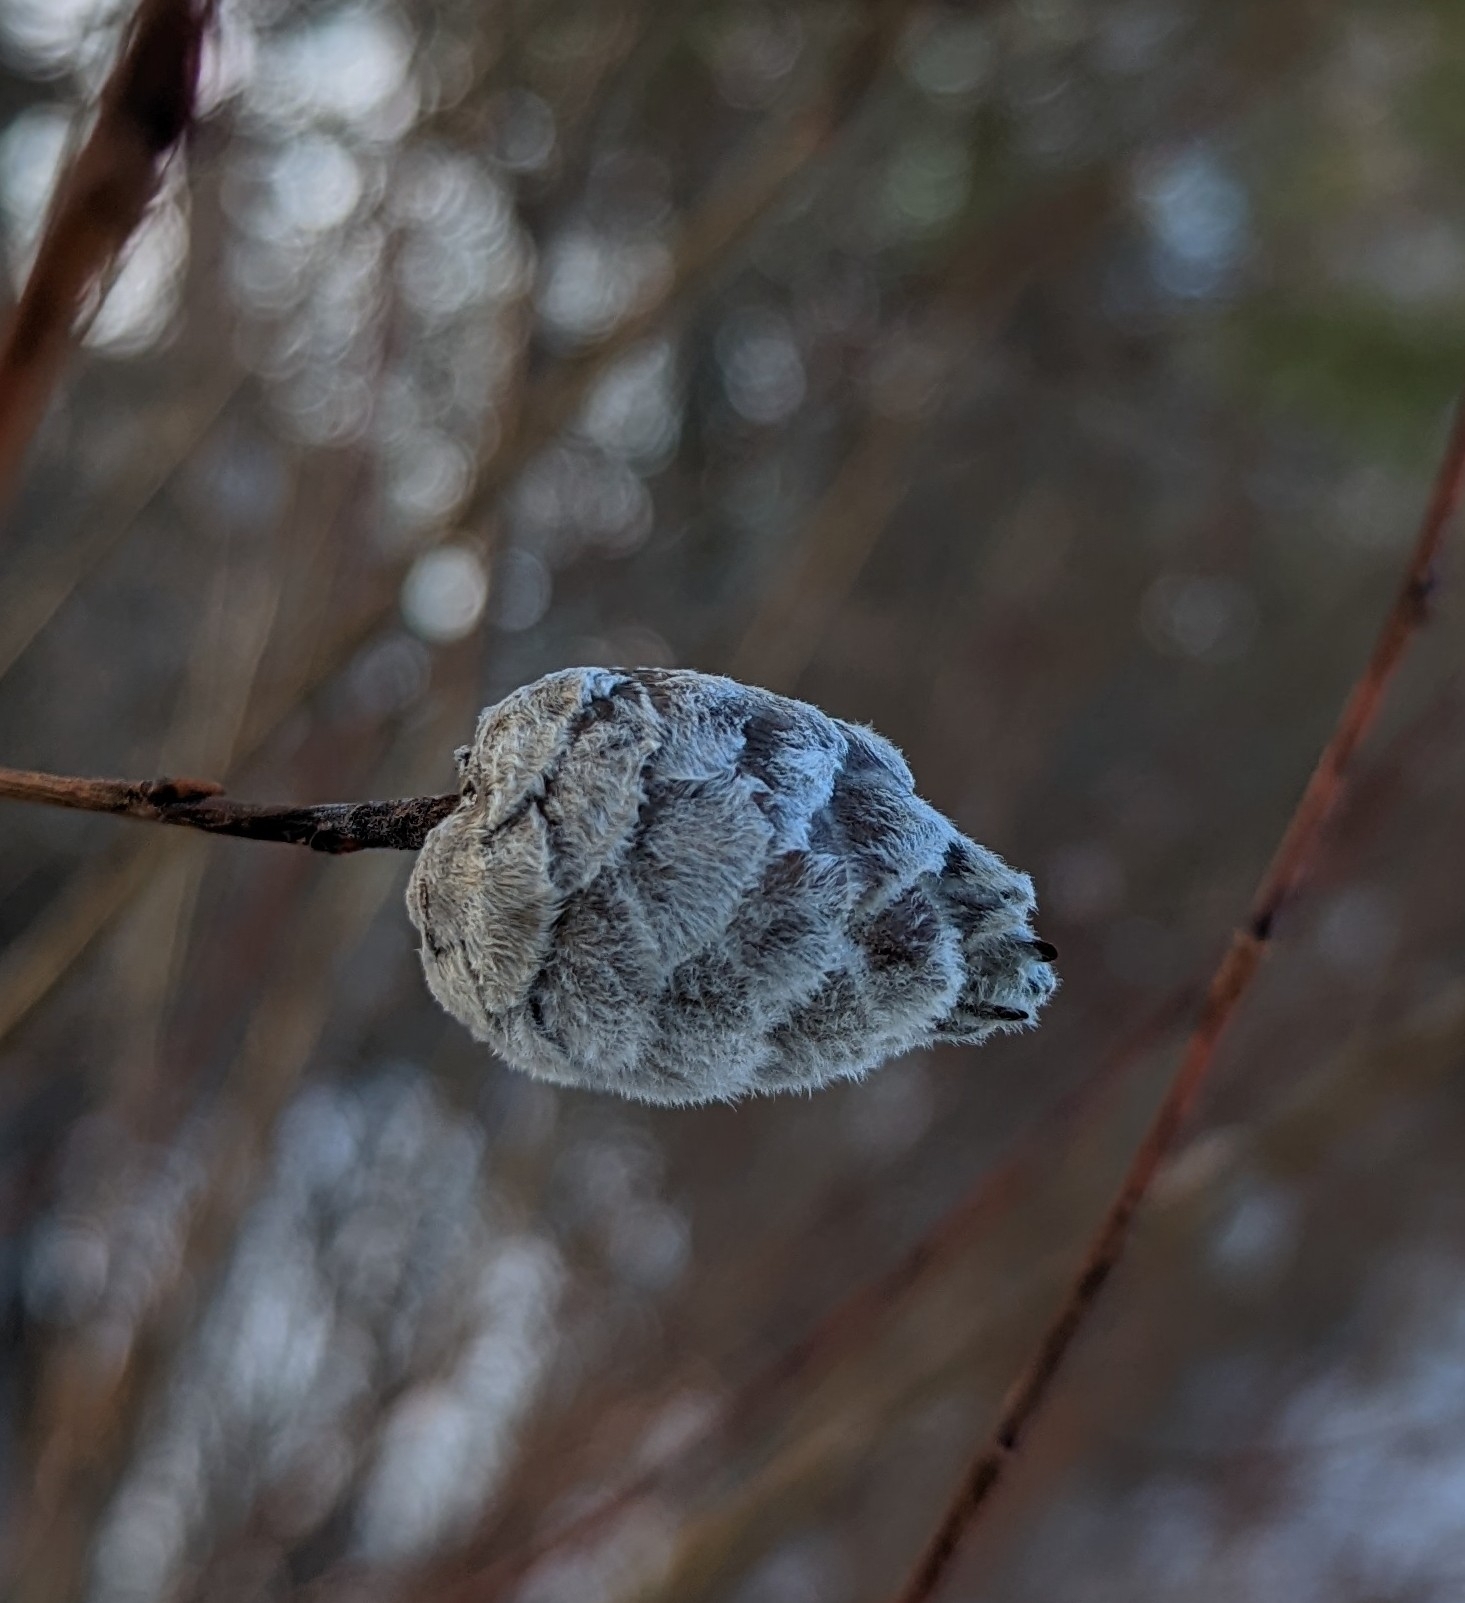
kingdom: Animalia
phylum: Arthropoda
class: Insecta
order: Diptera
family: Cecidomyiidae
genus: Rabdophaga
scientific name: Rabdophaga strobiloides
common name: Willow pinecone gall midge
